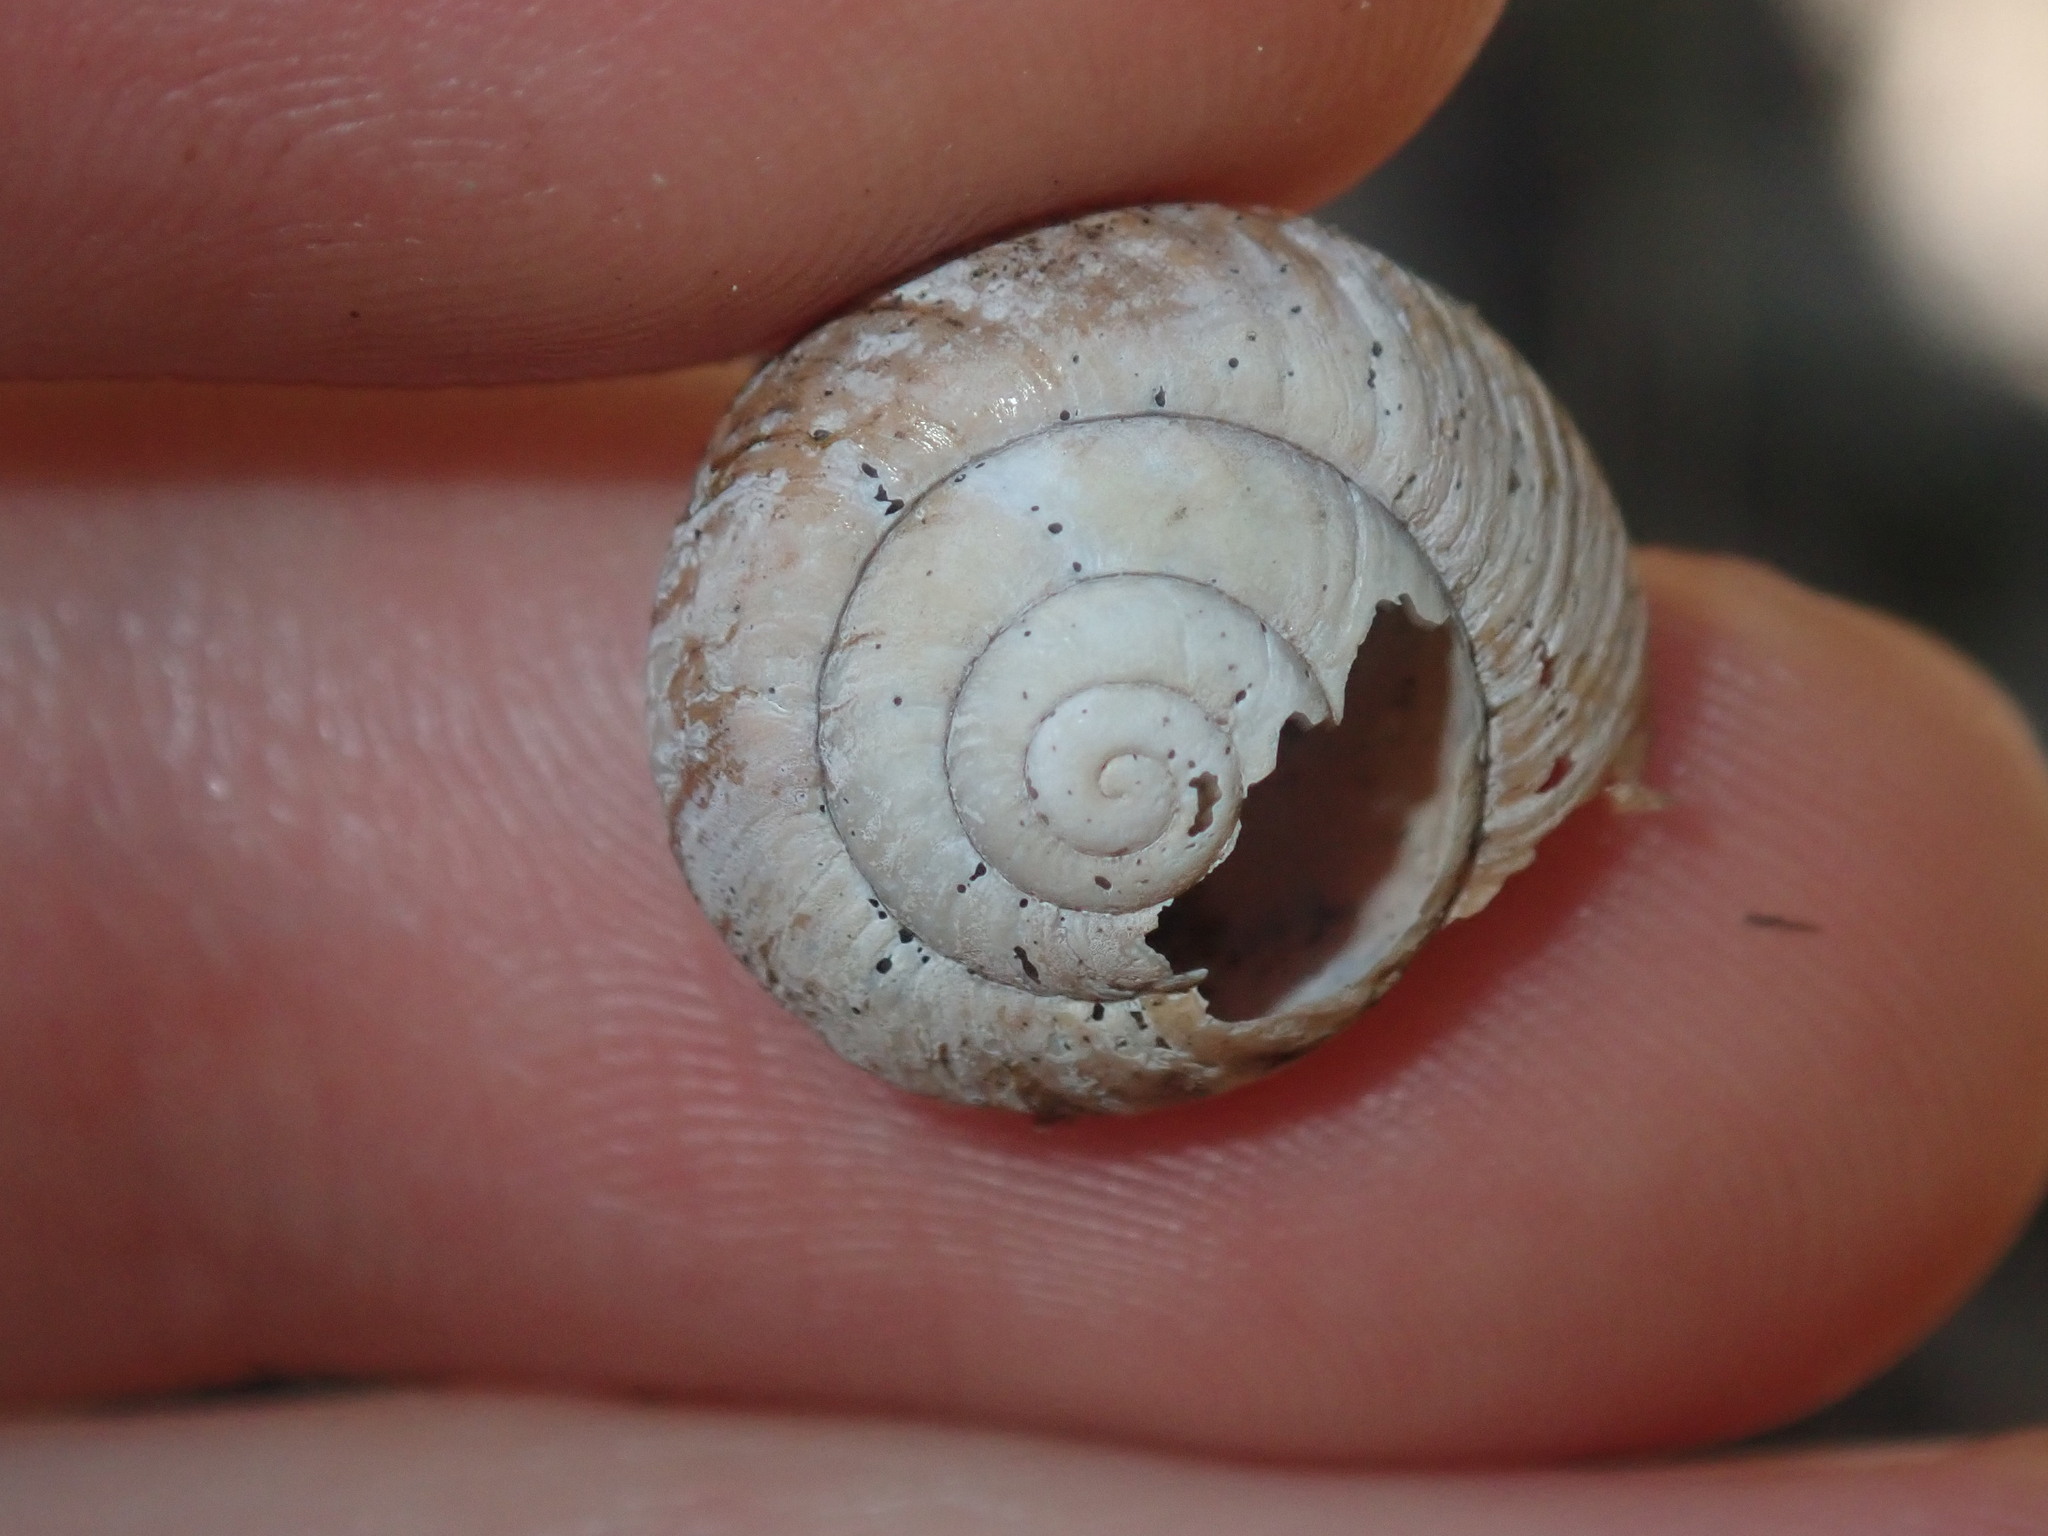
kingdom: Animalia
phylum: Mollusca
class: Gastropoda
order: Stylommatophora
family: Camaenidae
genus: Sauroconcha
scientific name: Sauroconcha sheai
